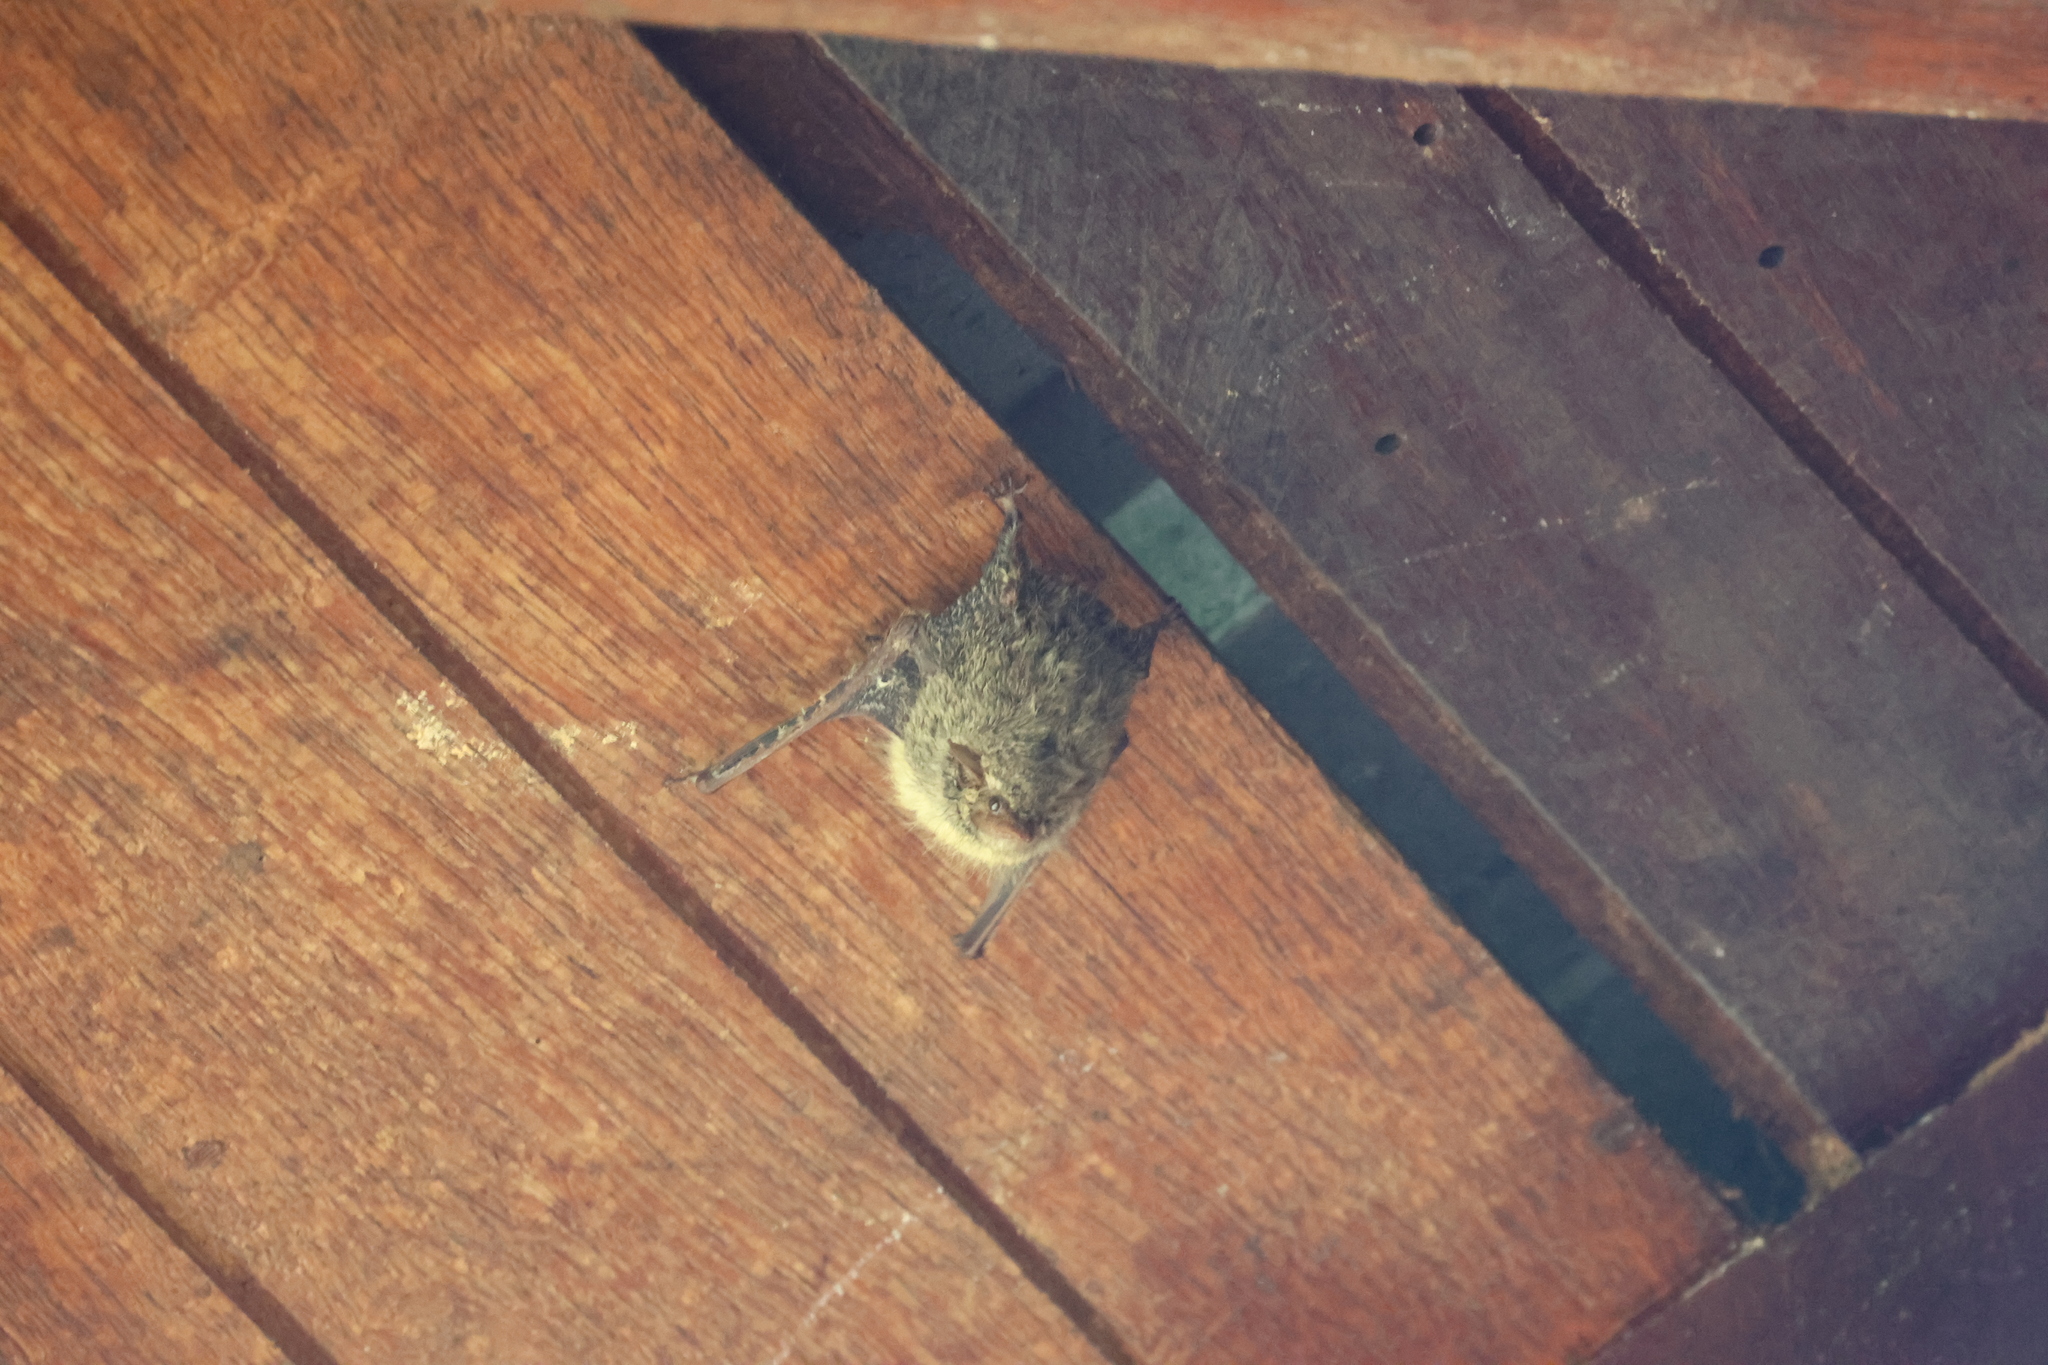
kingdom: Animalia
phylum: Chordata
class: Mammalia
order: Chiroptera
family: Emballonuridae
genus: Rhynchonycteris
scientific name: Rhynchonycteris naso
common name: Proboscis bat
